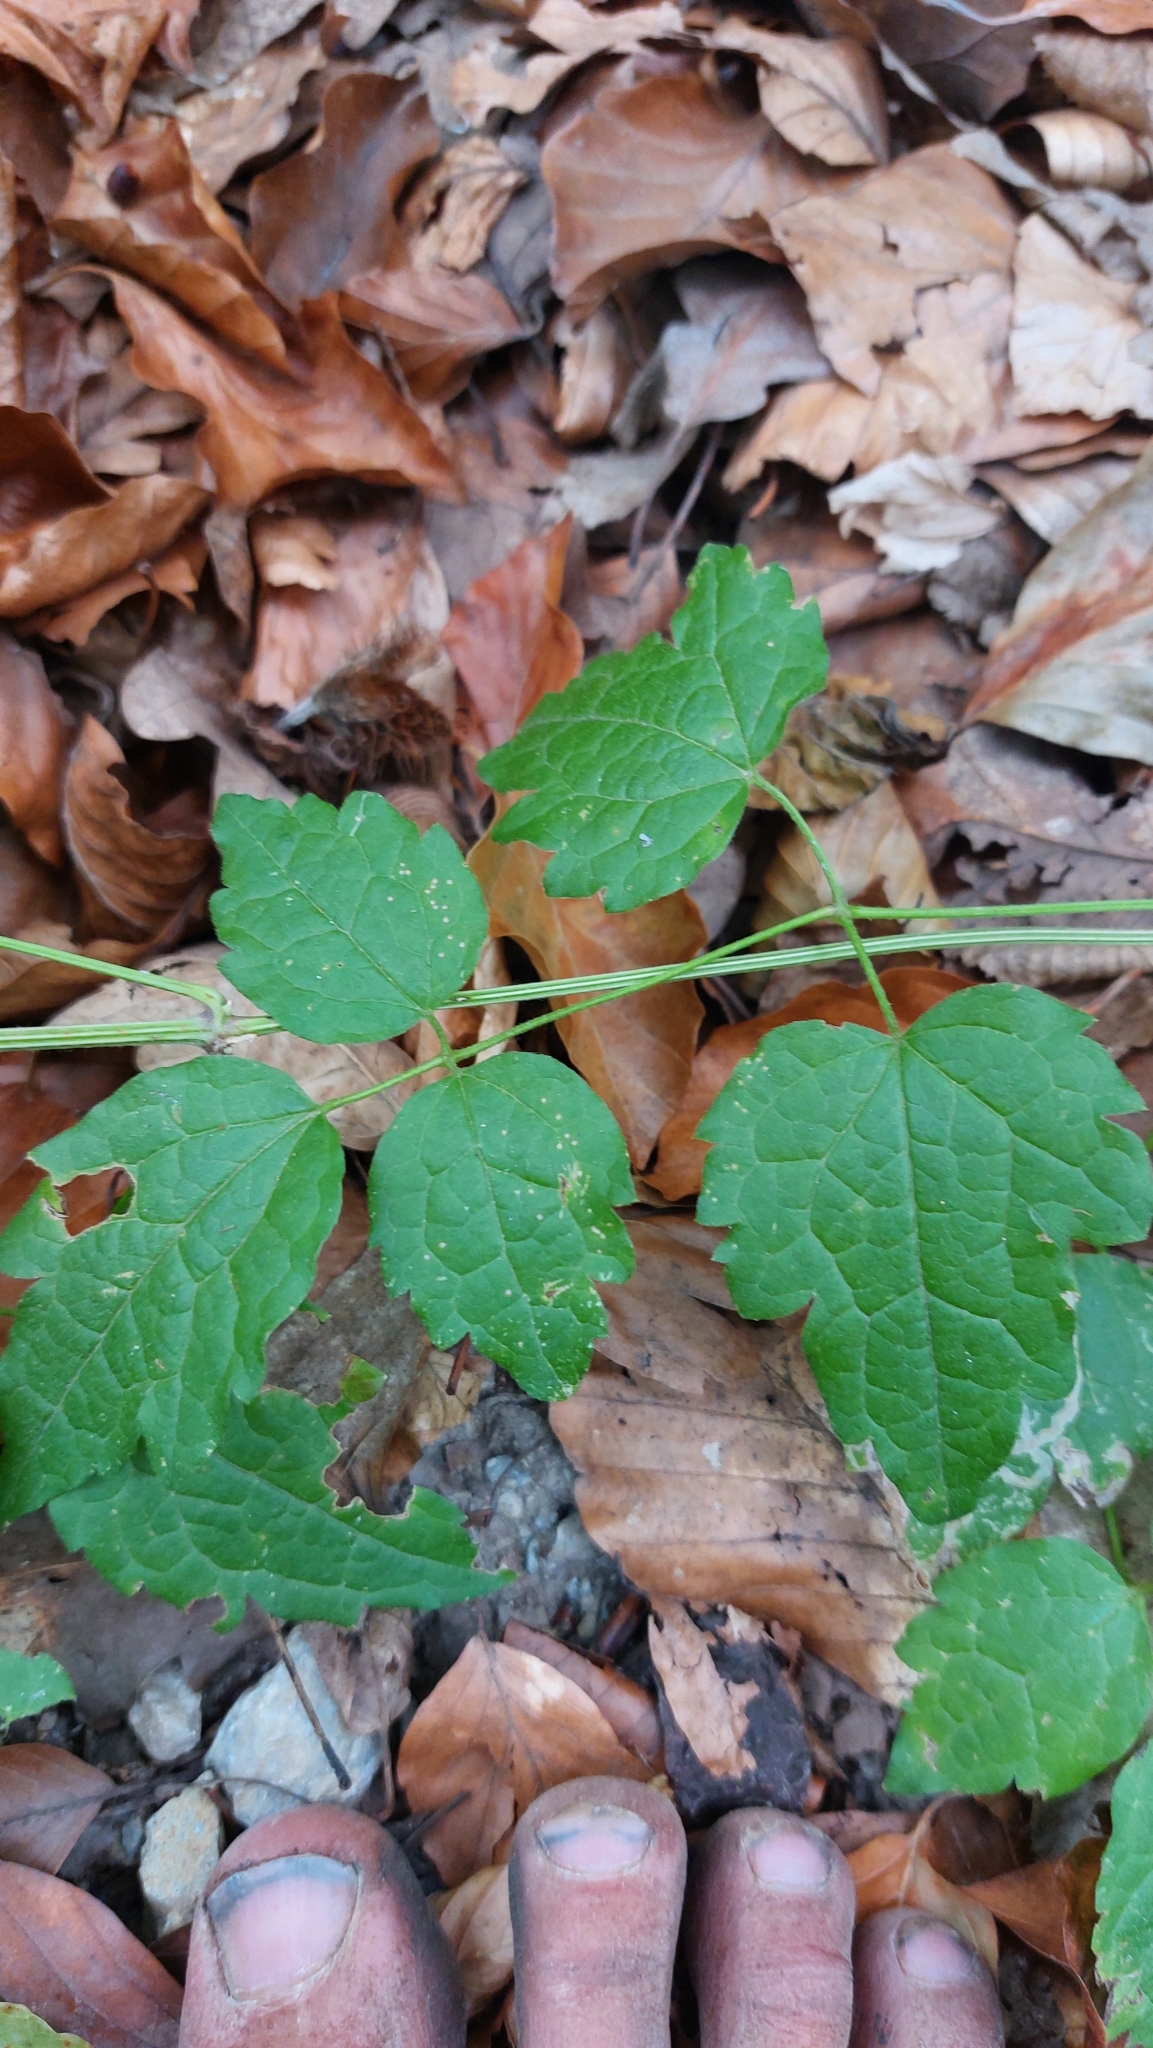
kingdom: Plantae
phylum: Tracheophyta
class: Magnoliopsida
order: Ranunculales
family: Ranunculaceae
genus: Clematis
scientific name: Clematis vitalba
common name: Evergreen clematis
